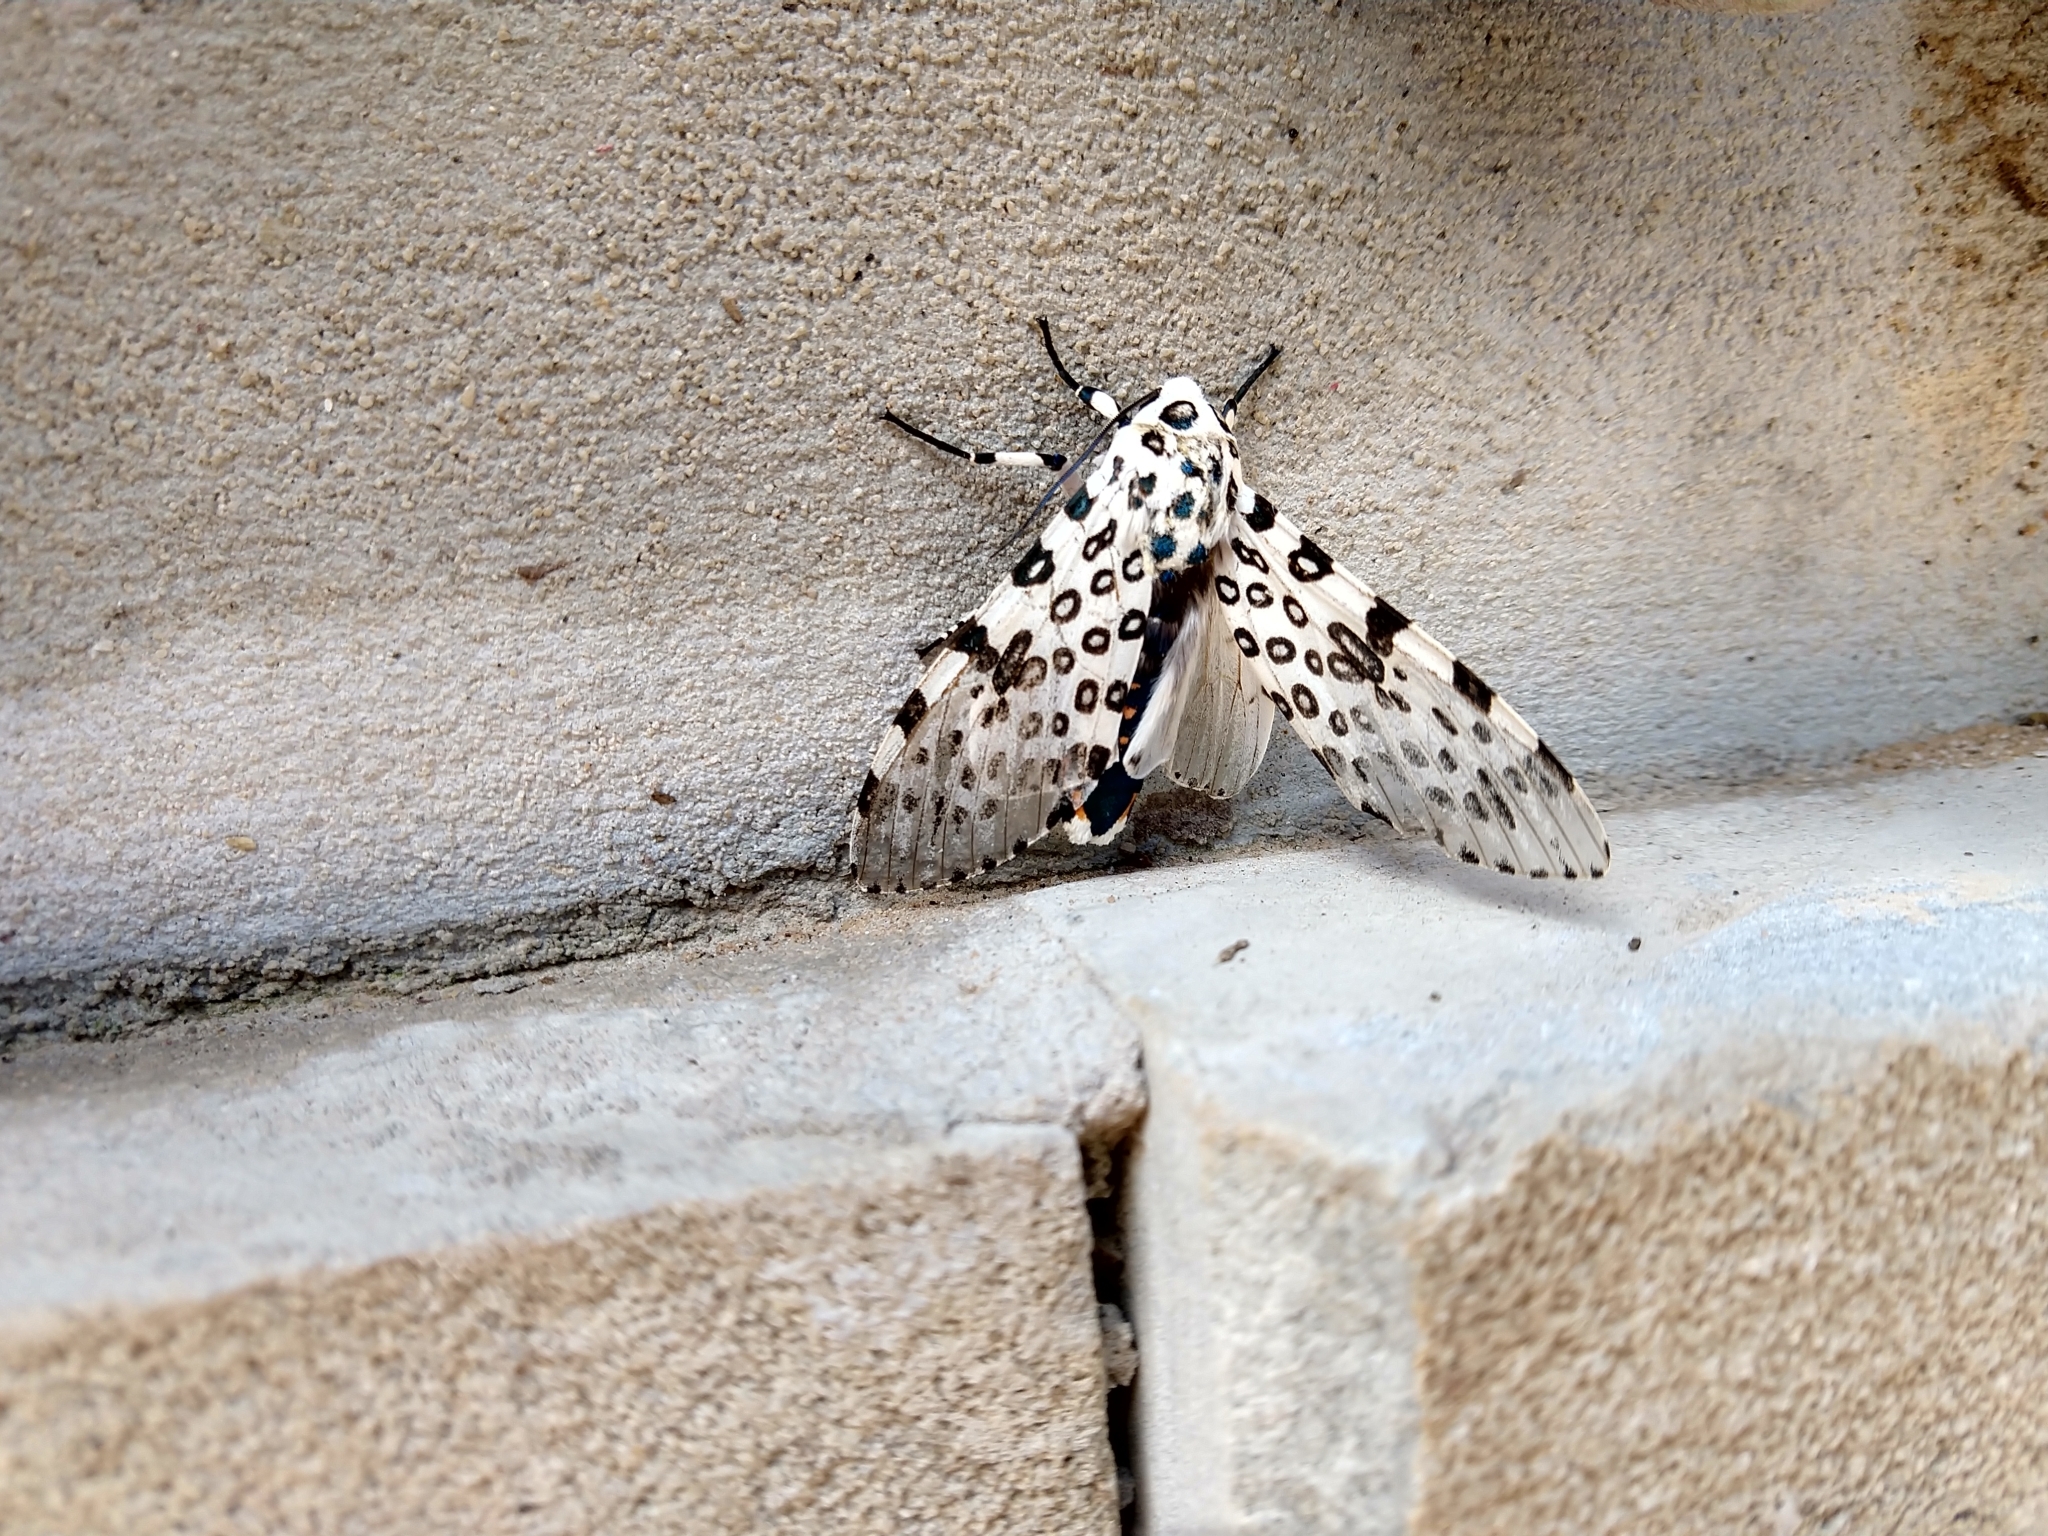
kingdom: Animalia
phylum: Arthropoda
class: Insecta
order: Lepidoptera
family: Erebidae
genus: Hypercompe
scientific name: Hypercompe scribonia
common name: Giant leopard moth
